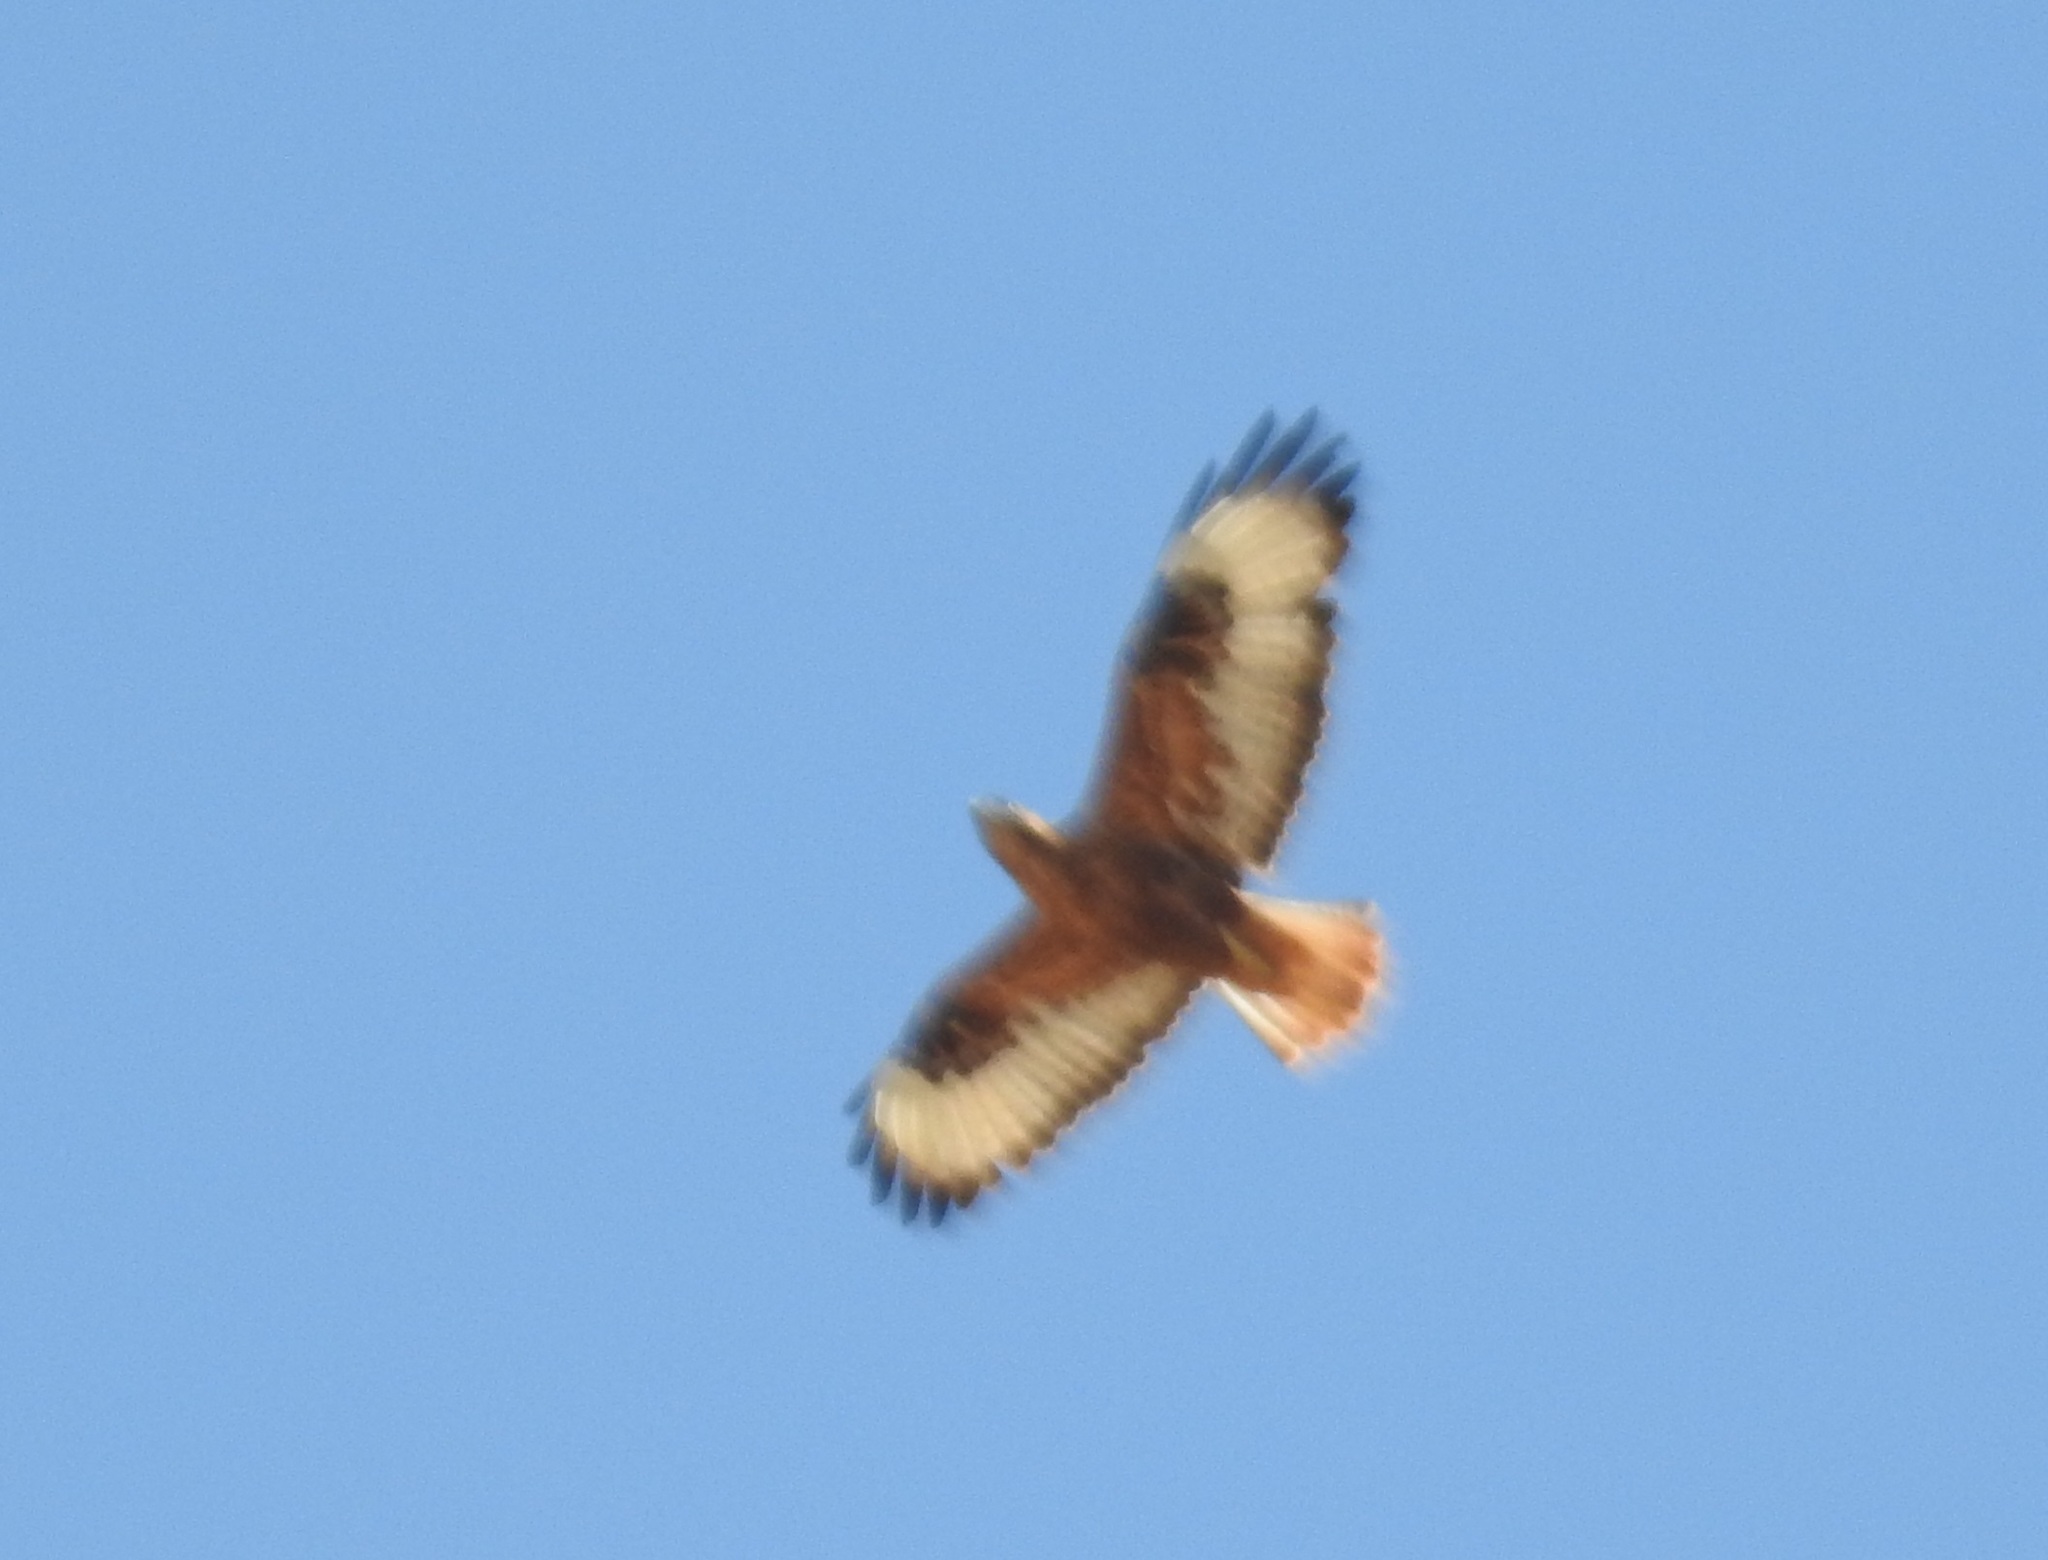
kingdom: Animalia
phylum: Chordata
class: Aves
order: Accipitriformes
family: Accipitridae
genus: Buteo
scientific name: Buteo rufinus
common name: Long-legged buzzard
